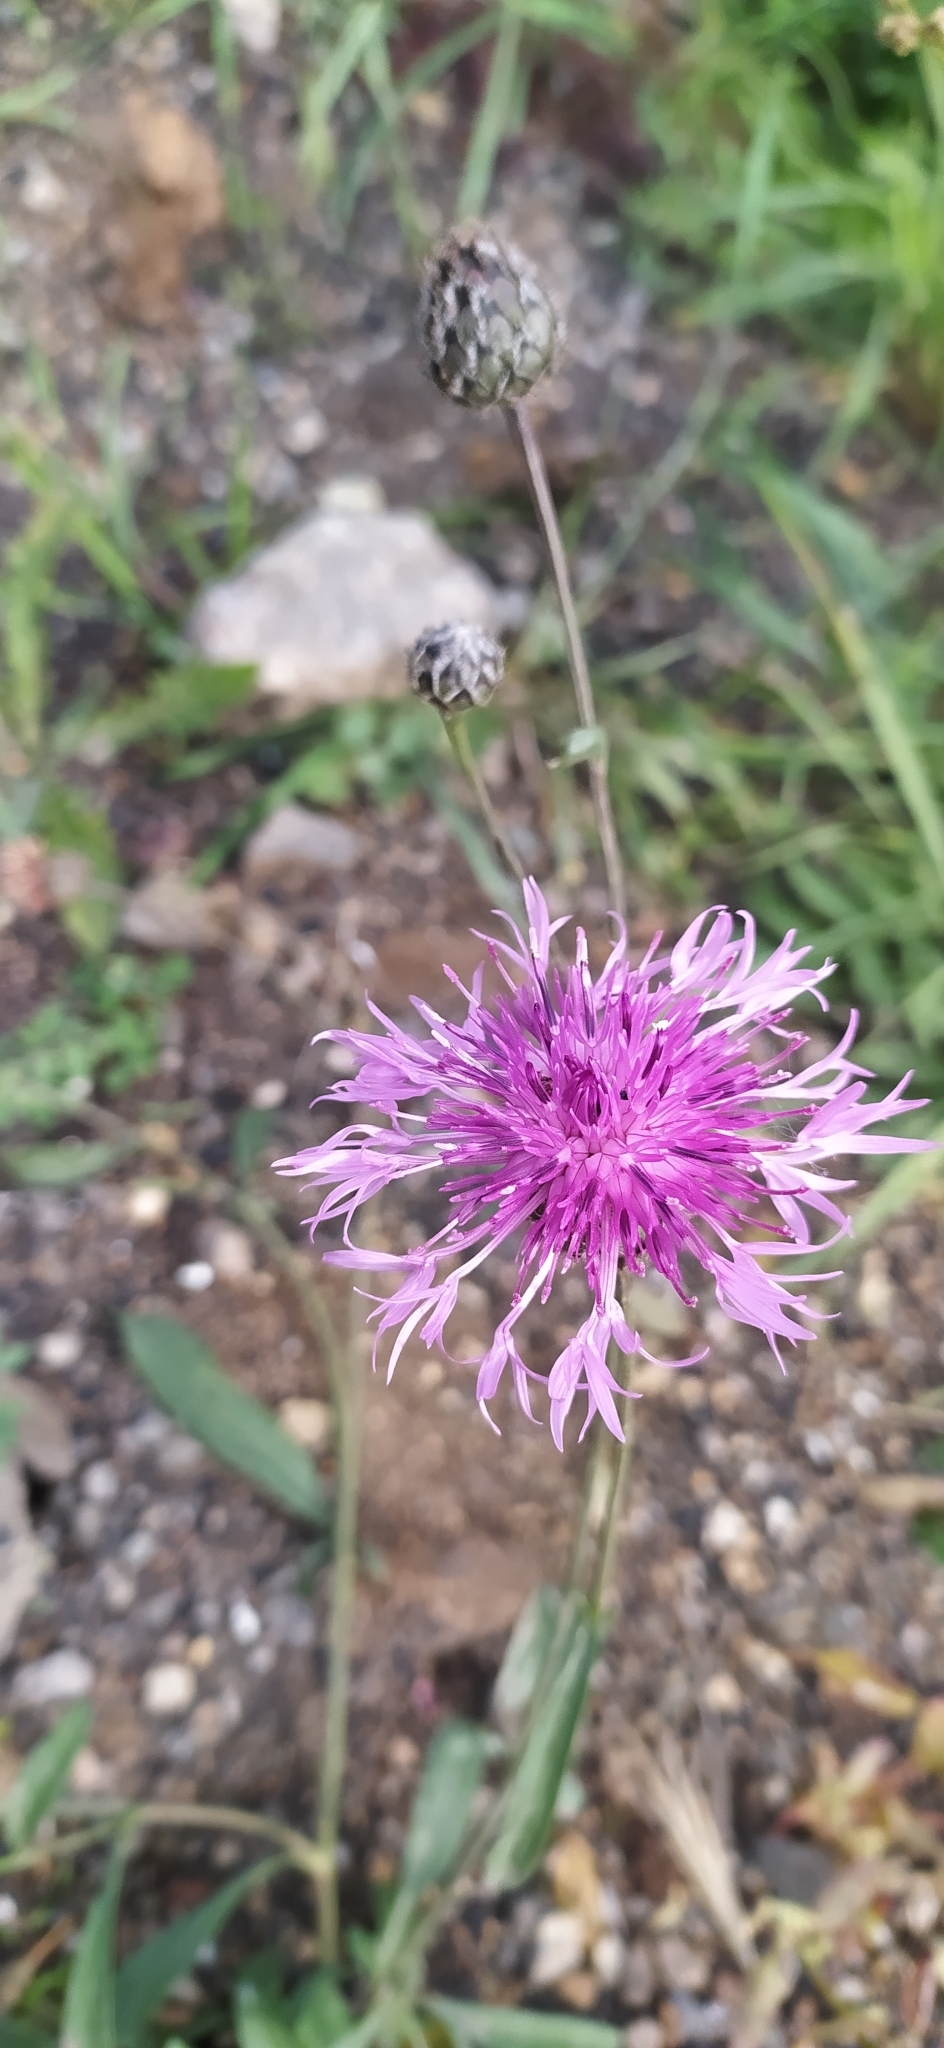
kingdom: Plantae
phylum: Tracheophyta
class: Magnoliopsida
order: Asterales
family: Asteraceae
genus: Centaurea
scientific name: Centaurea scabiosa
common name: Greater knapweed
